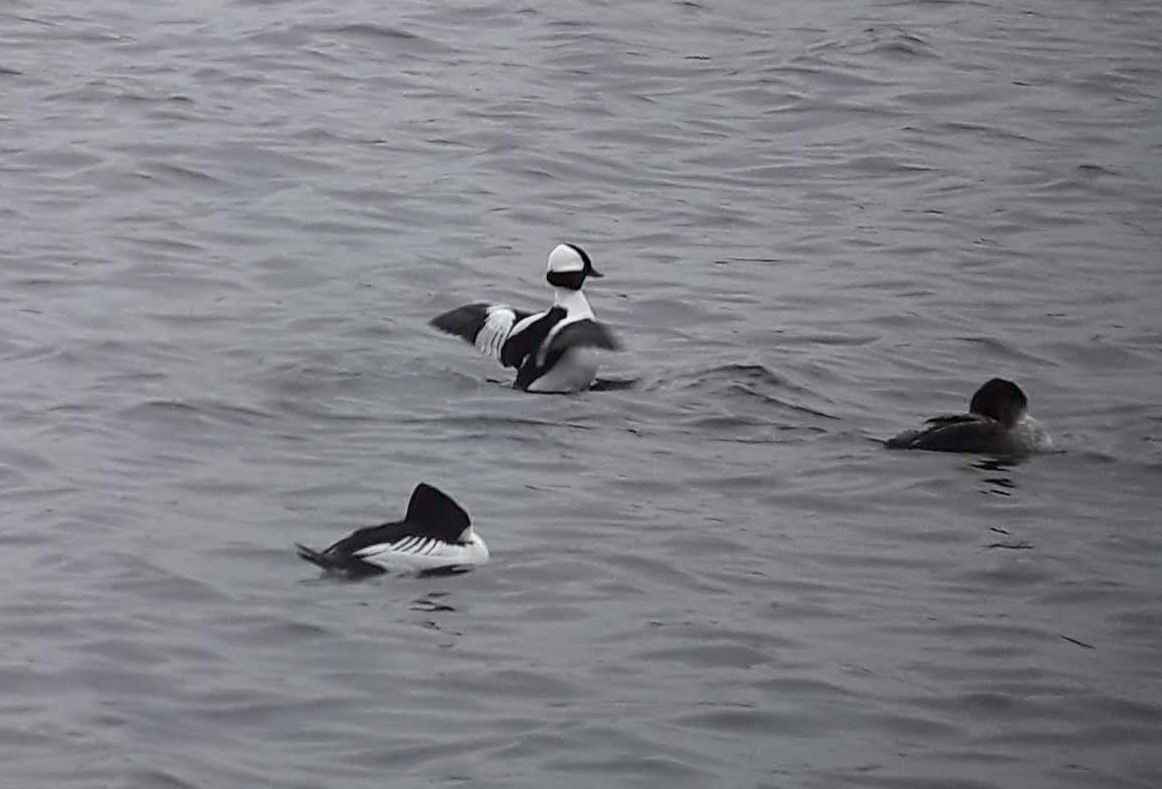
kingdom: Animalia
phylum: Chordata
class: Aves
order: Anseriformes
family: Anatidae
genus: Bucephala
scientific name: Bucephala albeola
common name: Bufflehead
